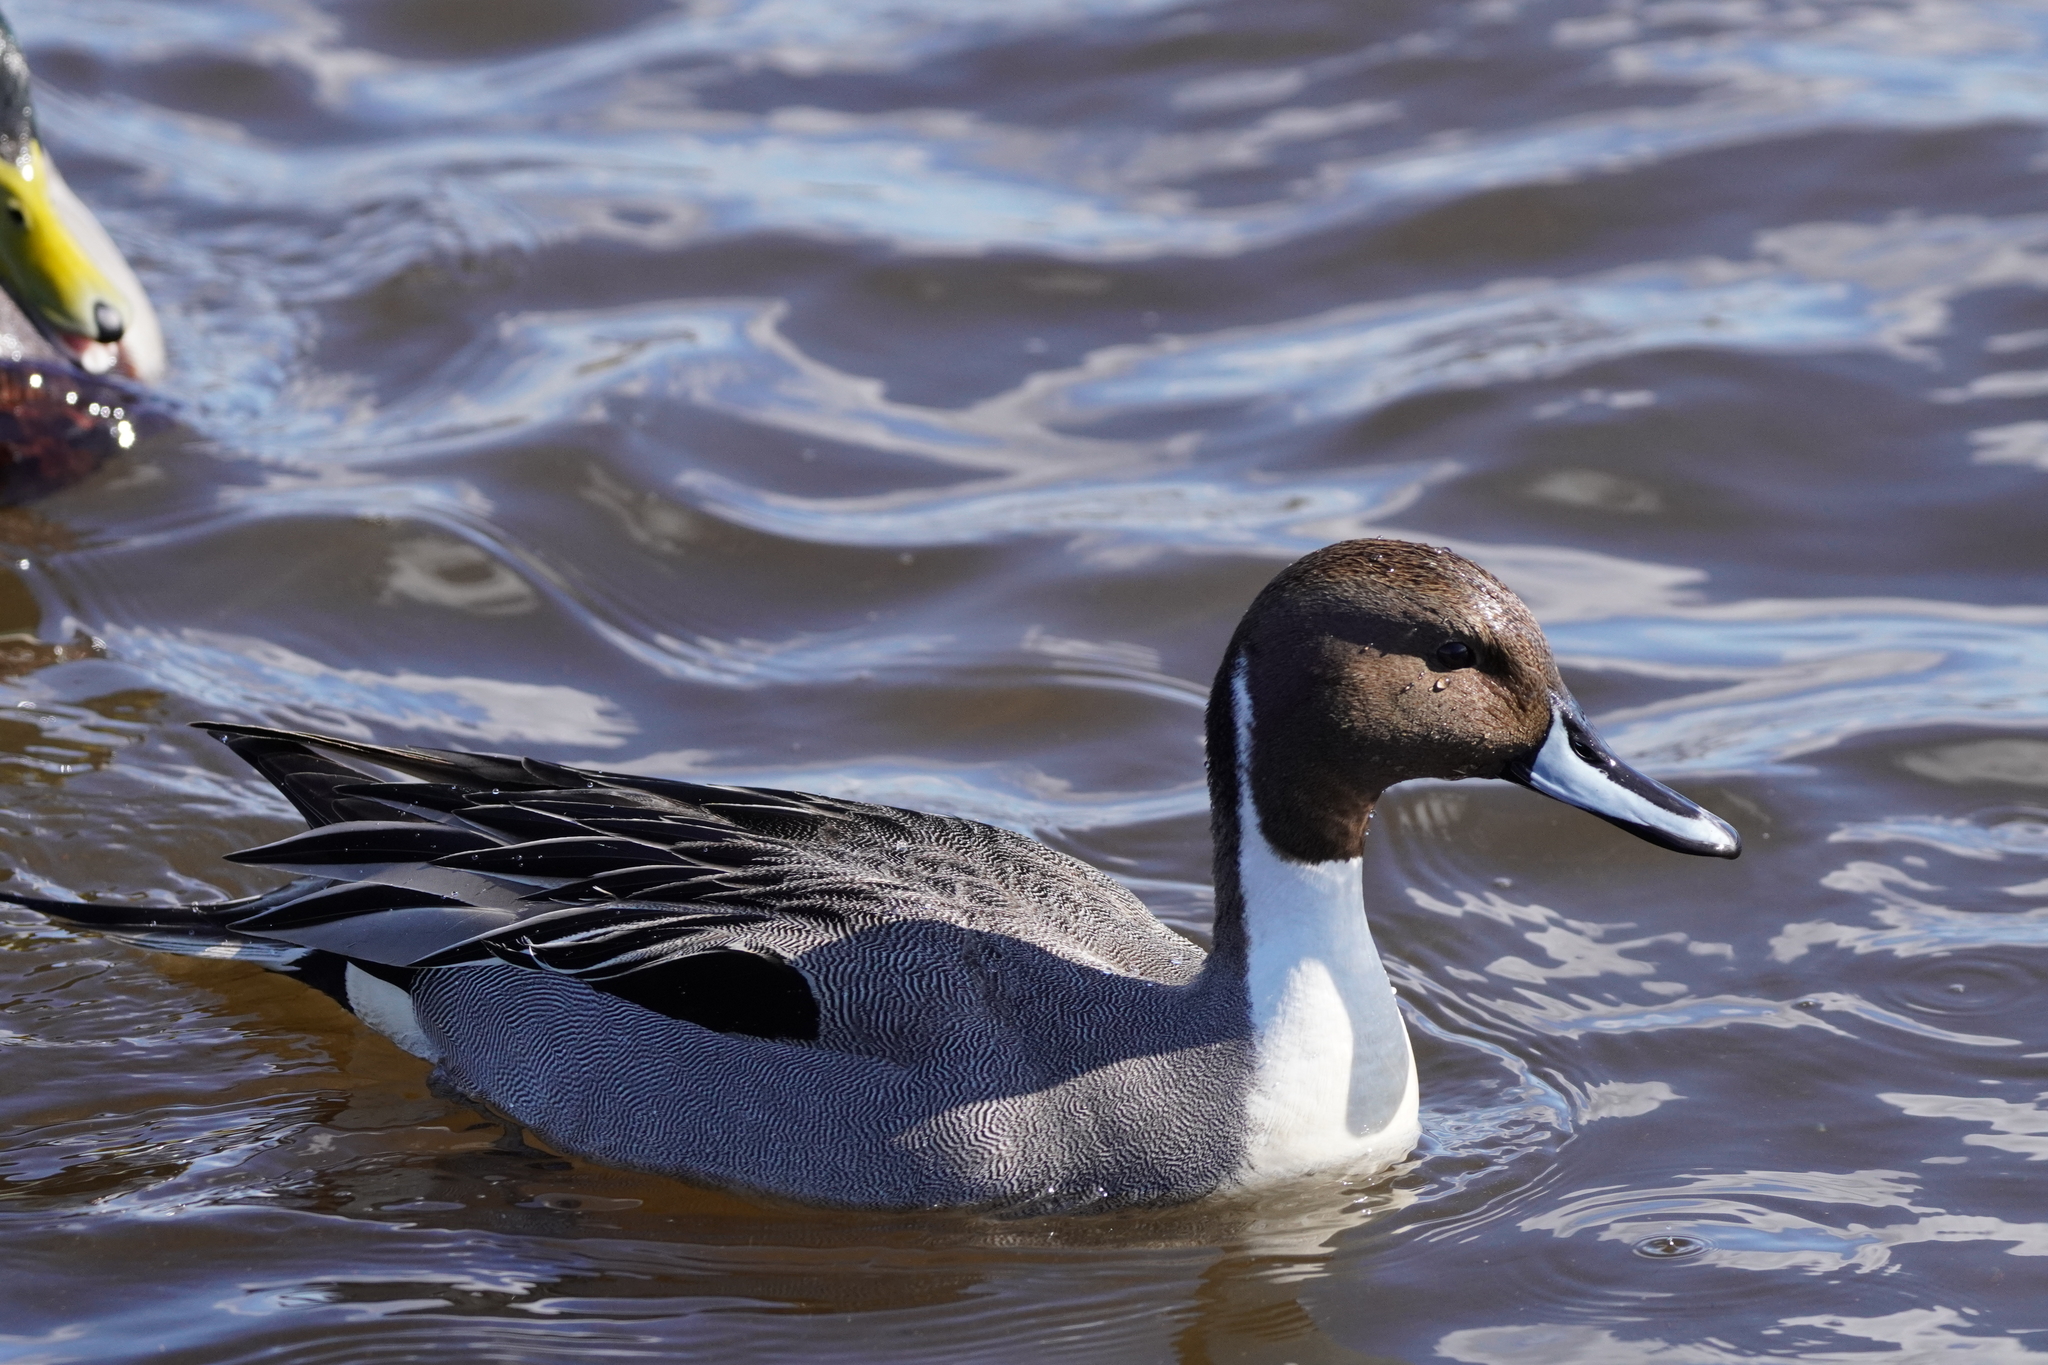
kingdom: Animalia
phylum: Chordata
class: Aves
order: Anseriformes
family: Anatidae
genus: Anas
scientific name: Anas acuta
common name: Northern pintail
